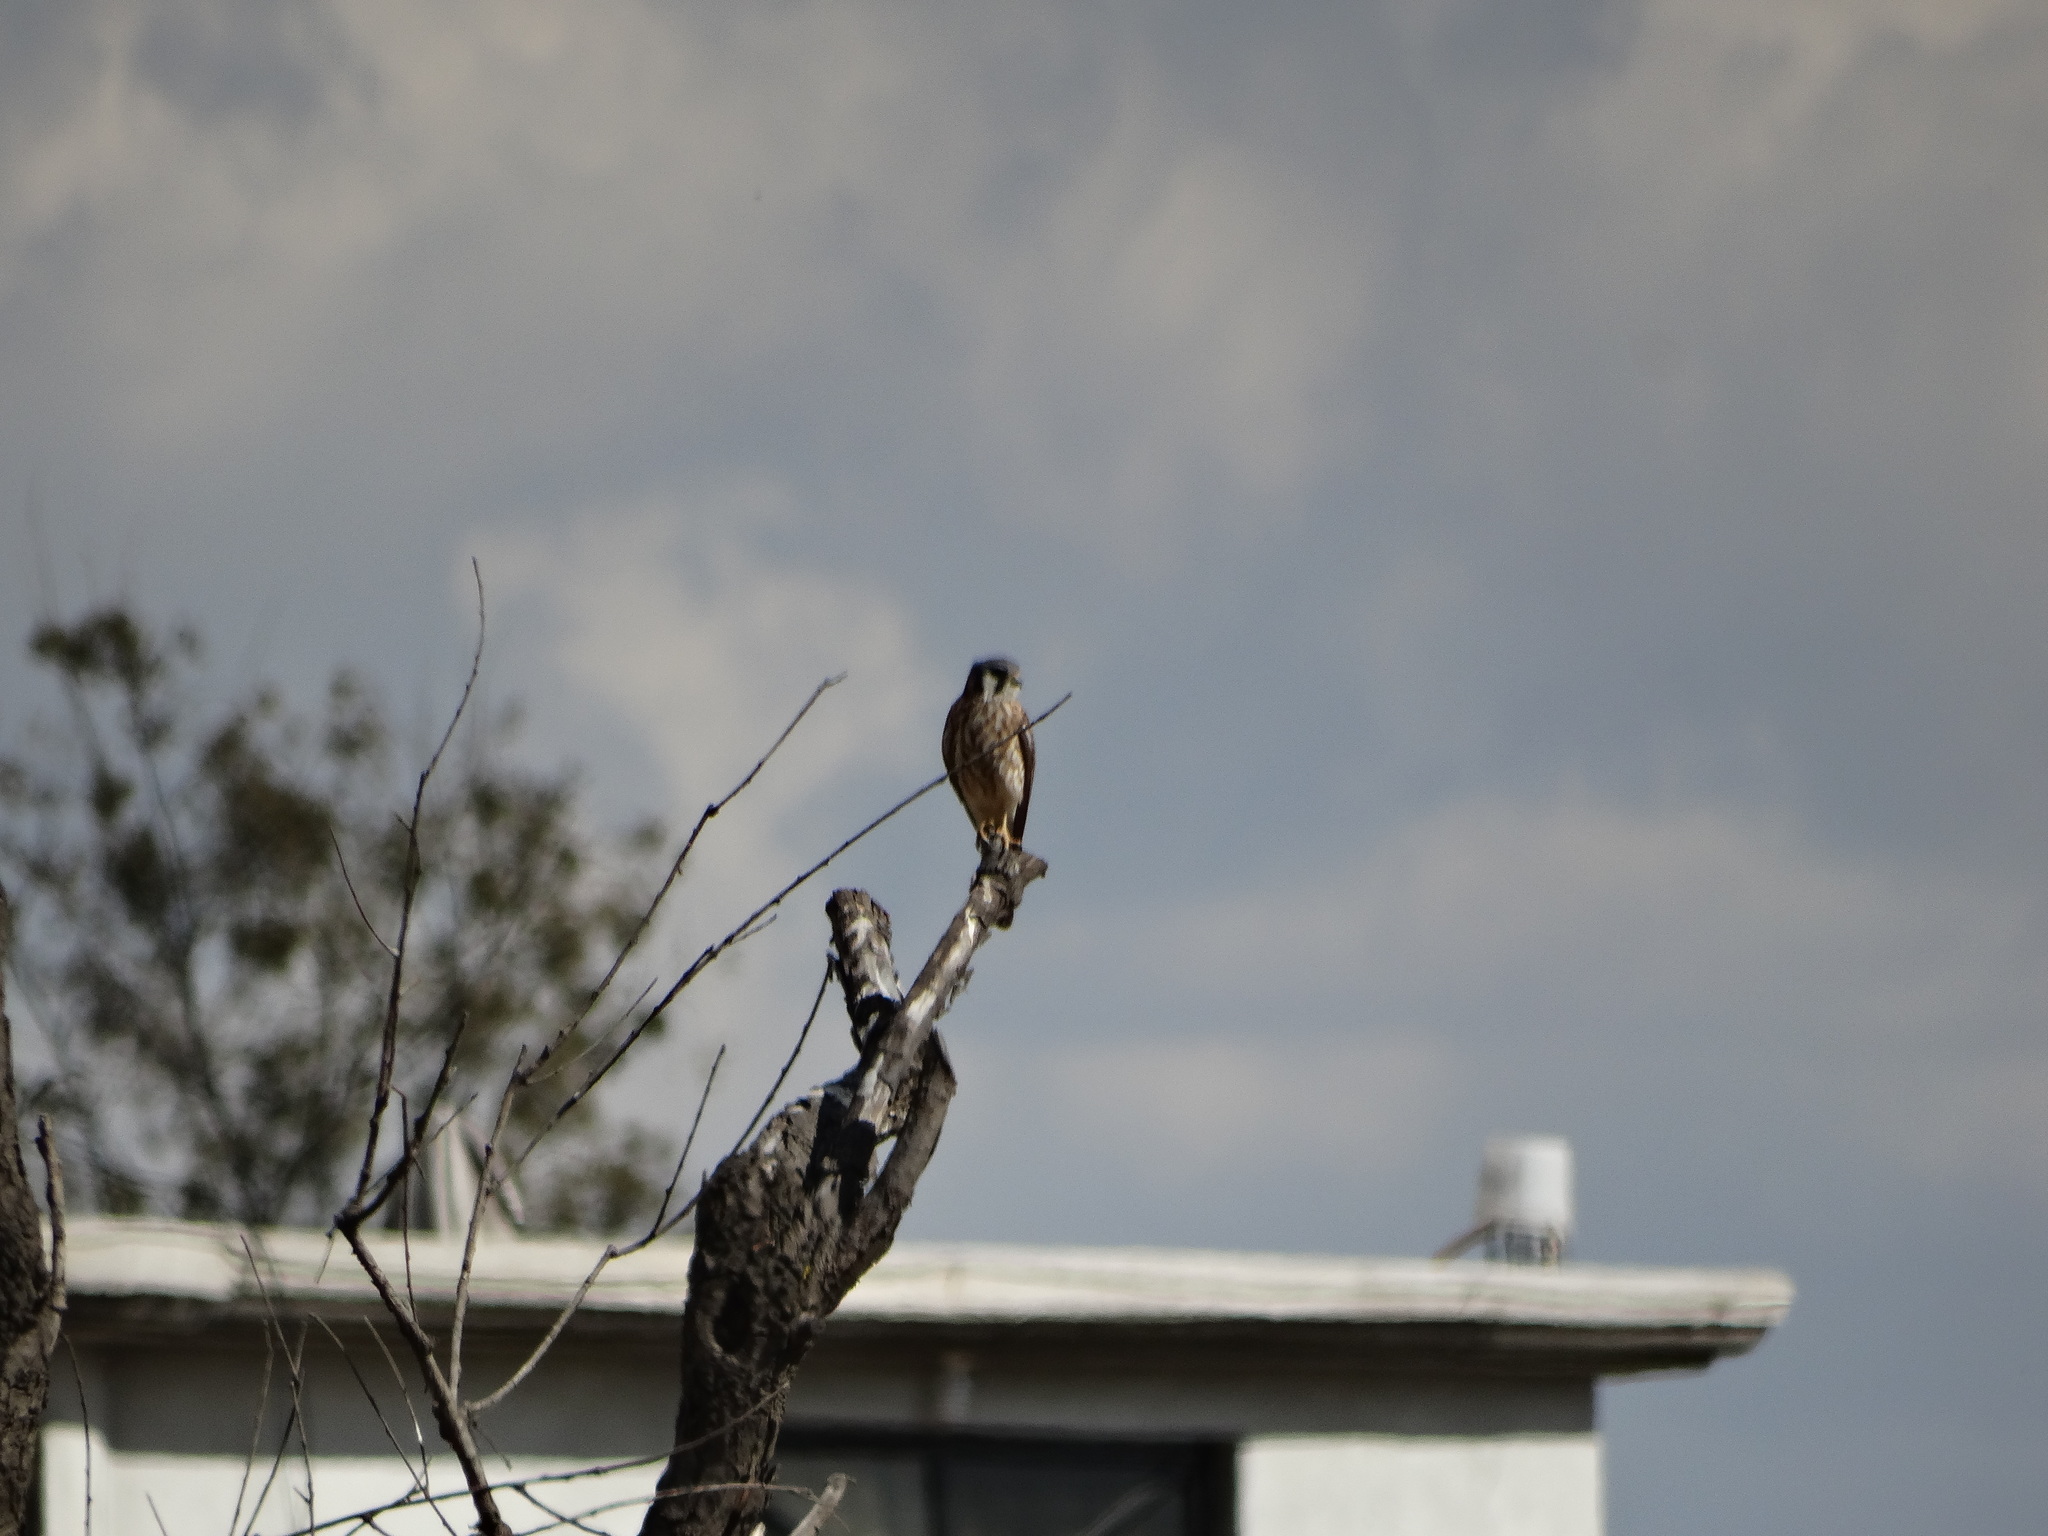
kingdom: Animalia
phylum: Chordata
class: Aves
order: Falconiformes
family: Falconidae
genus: Falco
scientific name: Falco sparverius
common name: American kestrel
